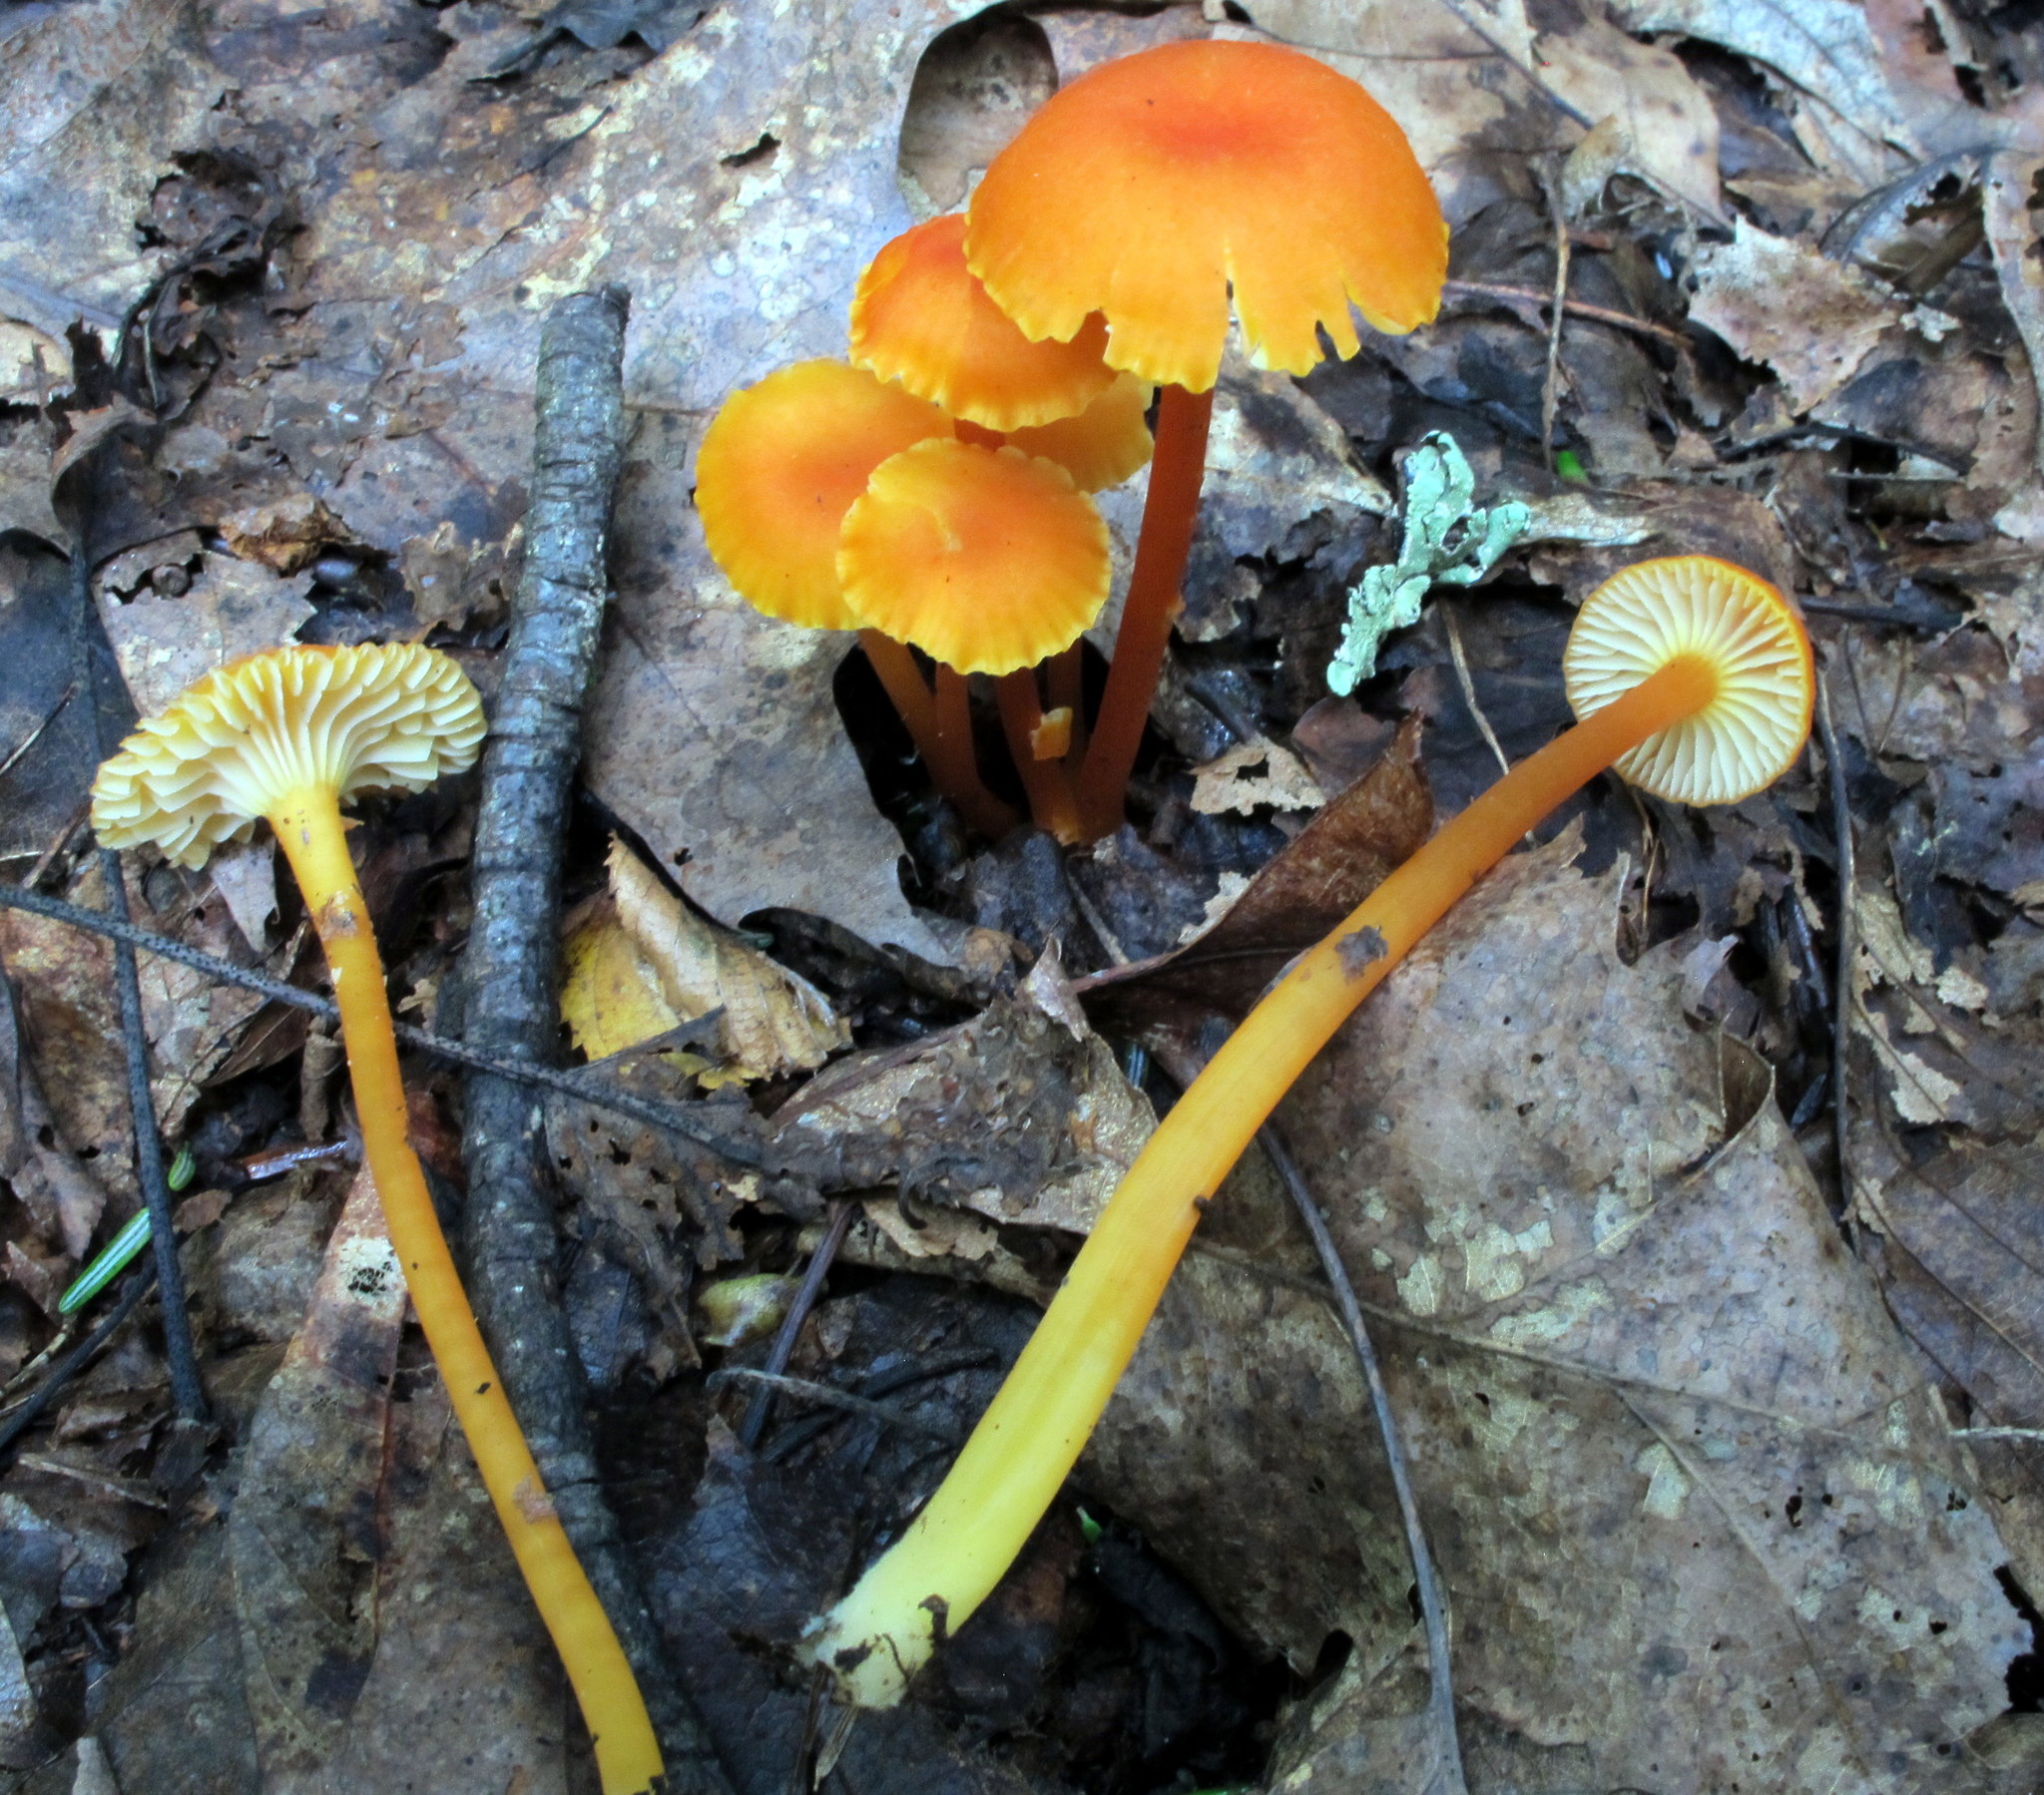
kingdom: Fungi
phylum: Basidiomycota
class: Agaricomycetes
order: Agaricales
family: Hygrophoraceae
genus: Hygrocybe
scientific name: Hygrocybe cantharellus
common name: Goblet waxcap
